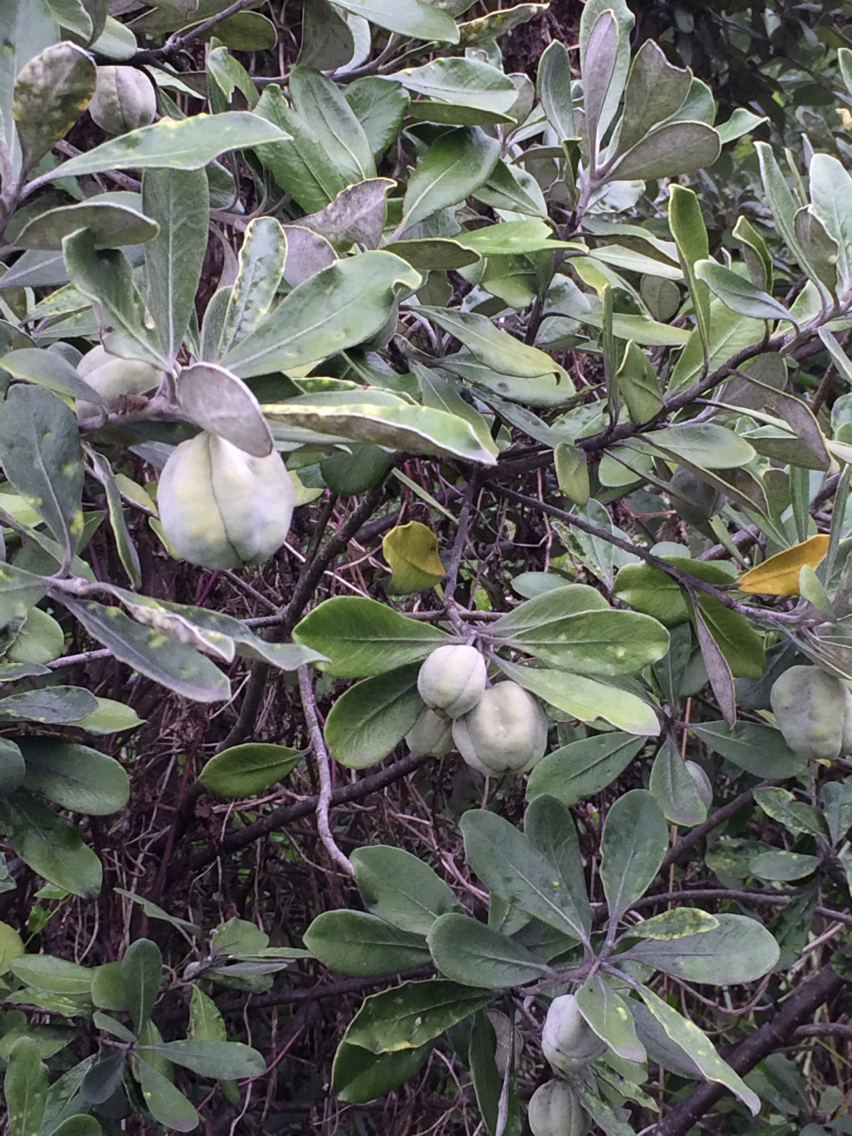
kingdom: Plantae
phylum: Tracheophyta
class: Magnoliopsida
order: Apiales
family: Pittosporaceae
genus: Pittosporum
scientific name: Pittosporum crassifolium
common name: Karo
